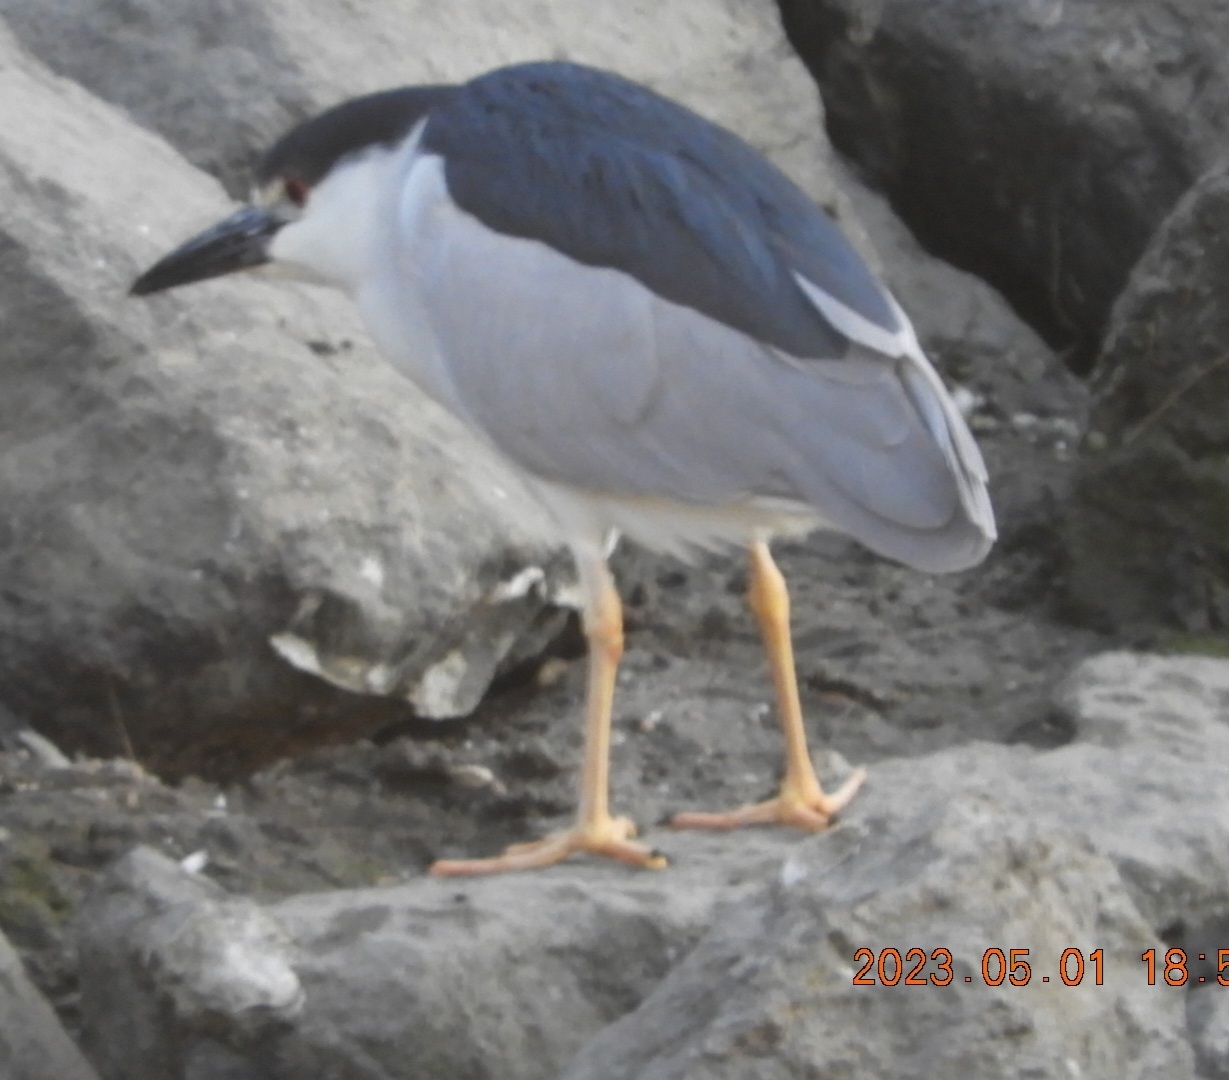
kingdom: Animalia
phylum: Chordata
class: Aves
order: Pelecaniformes
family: Ardeidae
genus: Nycticorax
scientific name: Nycticorax nycticorax
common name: Black-crowned night heron
